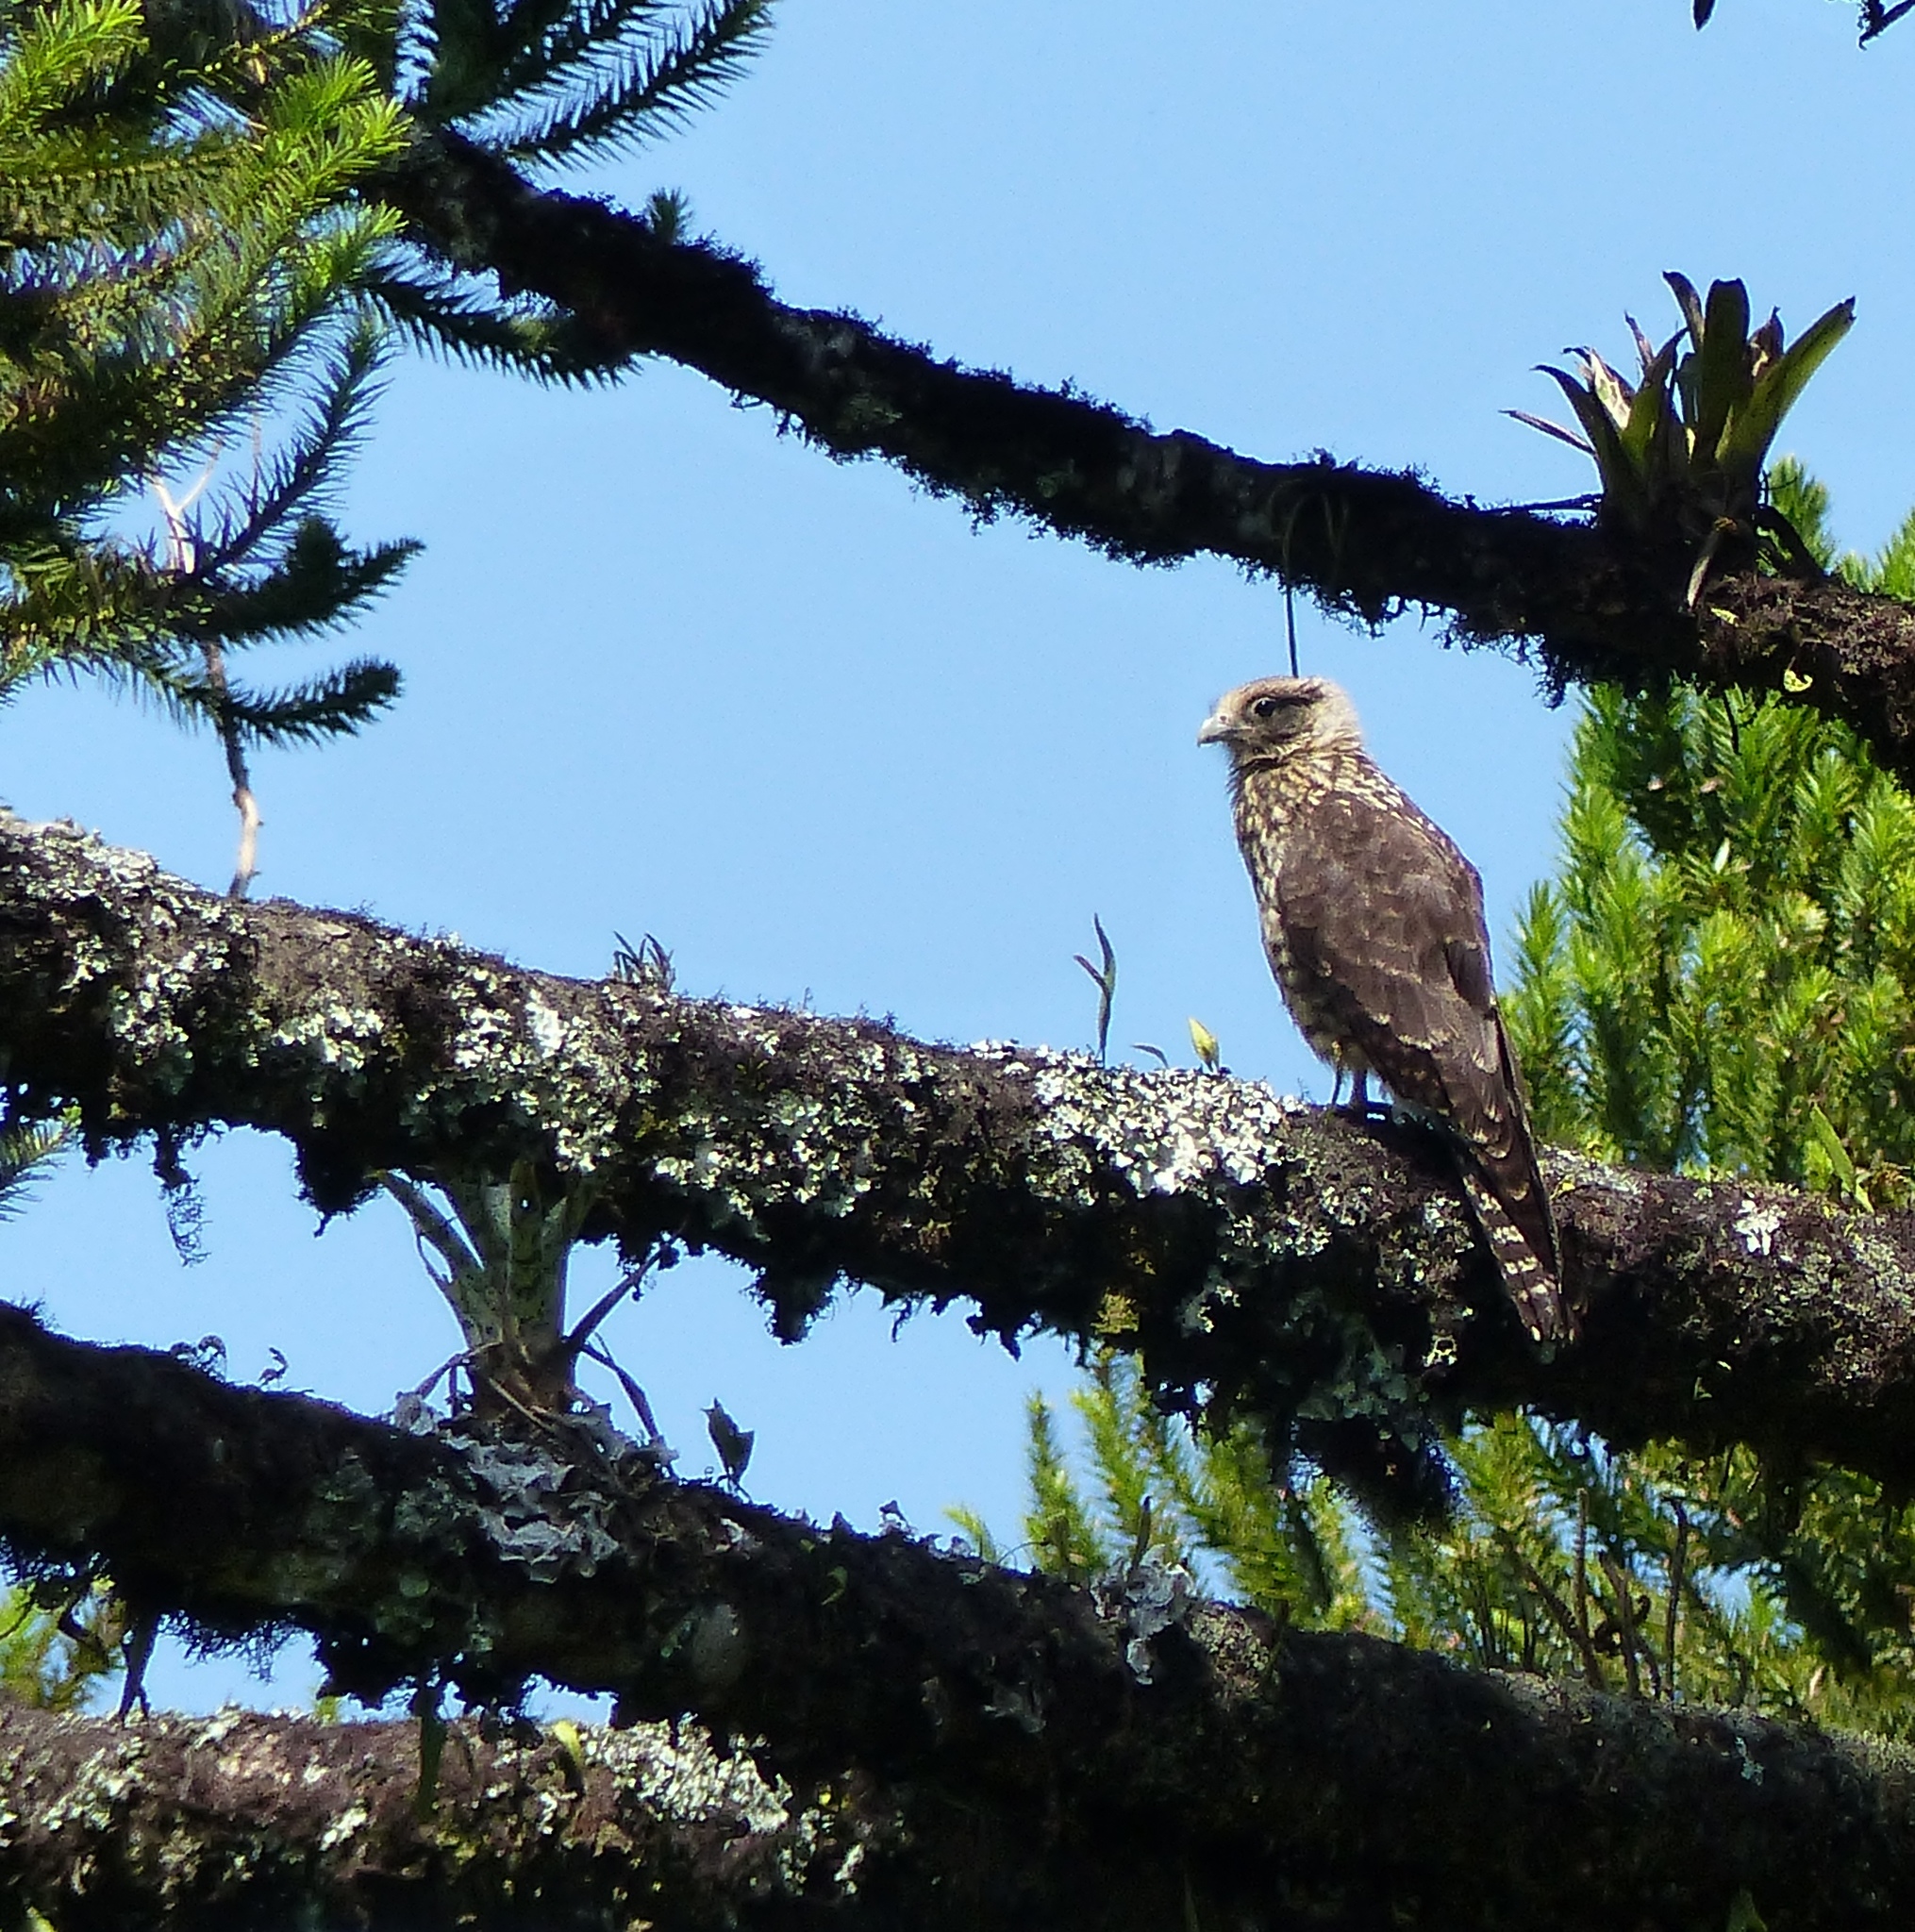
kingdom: Animalia
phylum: Chordata
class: Aves
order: Falconiformes
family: Falconidae
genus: Daptrius
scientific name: Daptrius
